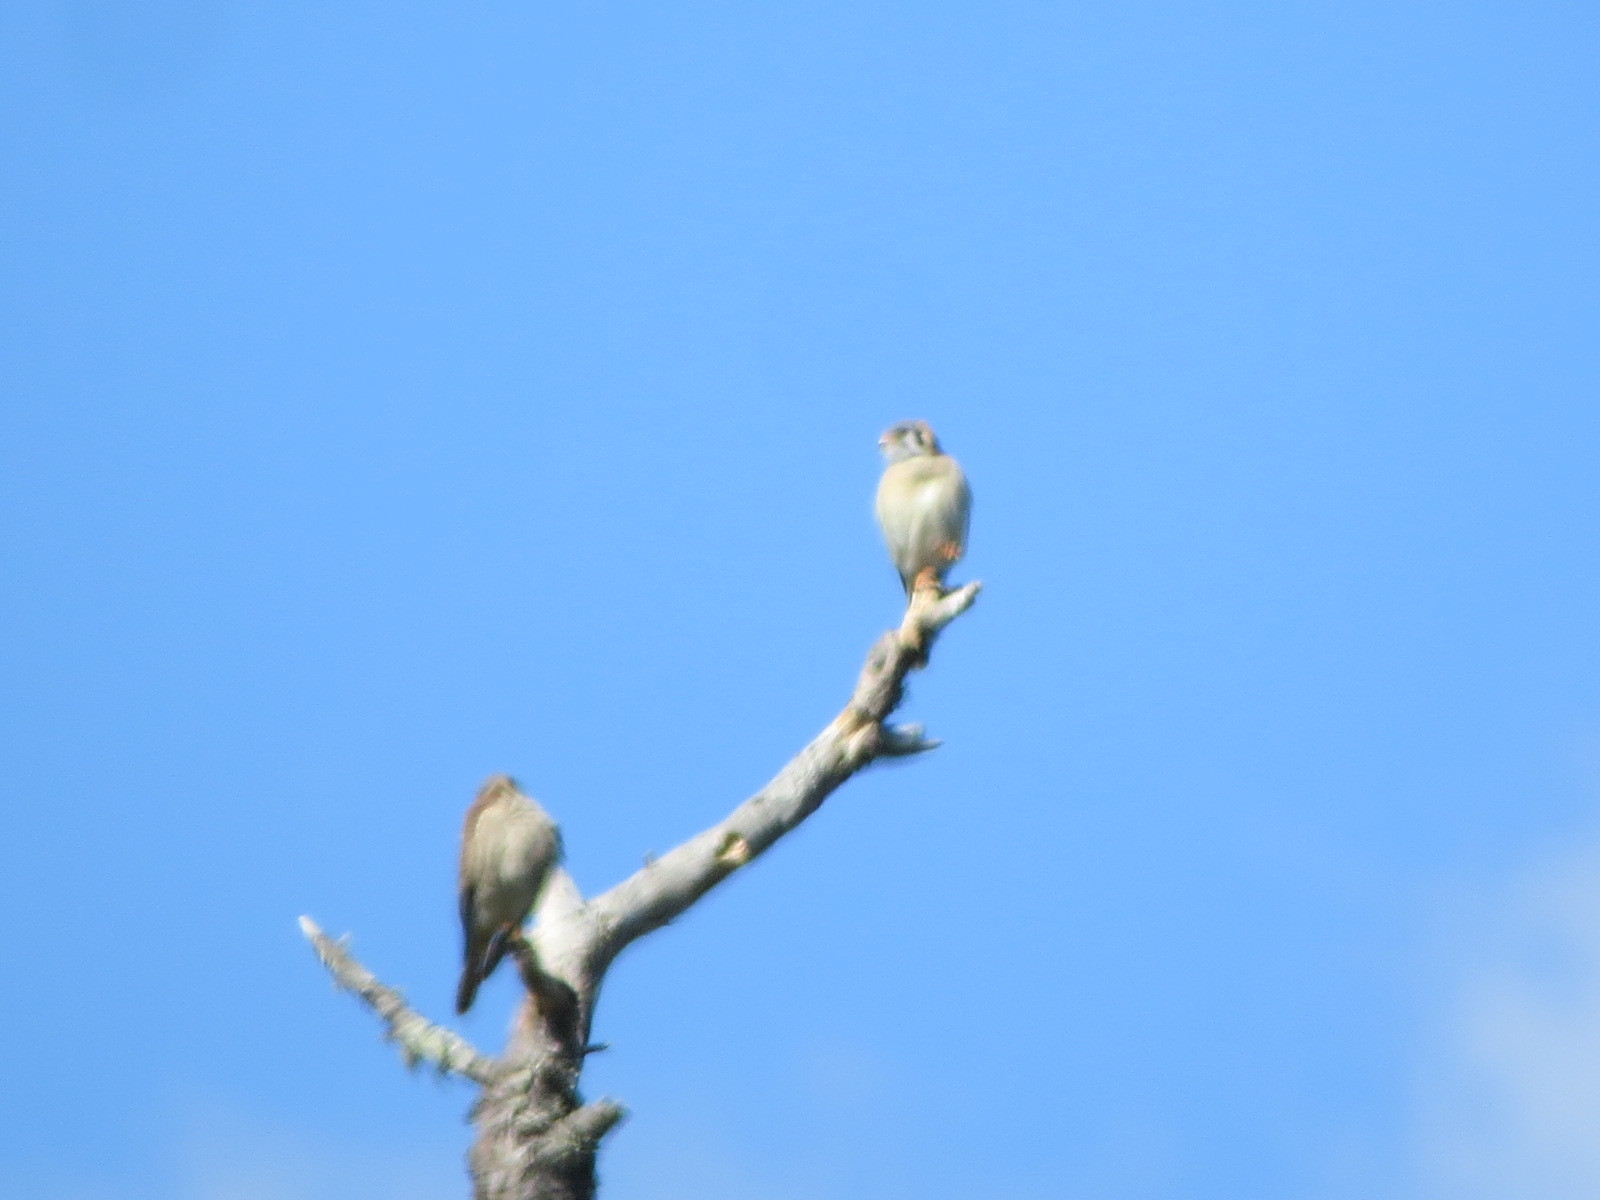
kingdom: Animalia
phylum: Chordata
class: Aves
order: Falconiformes
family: Falconidae
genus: Falco
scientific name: Falco sparverius
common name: American kestrel
